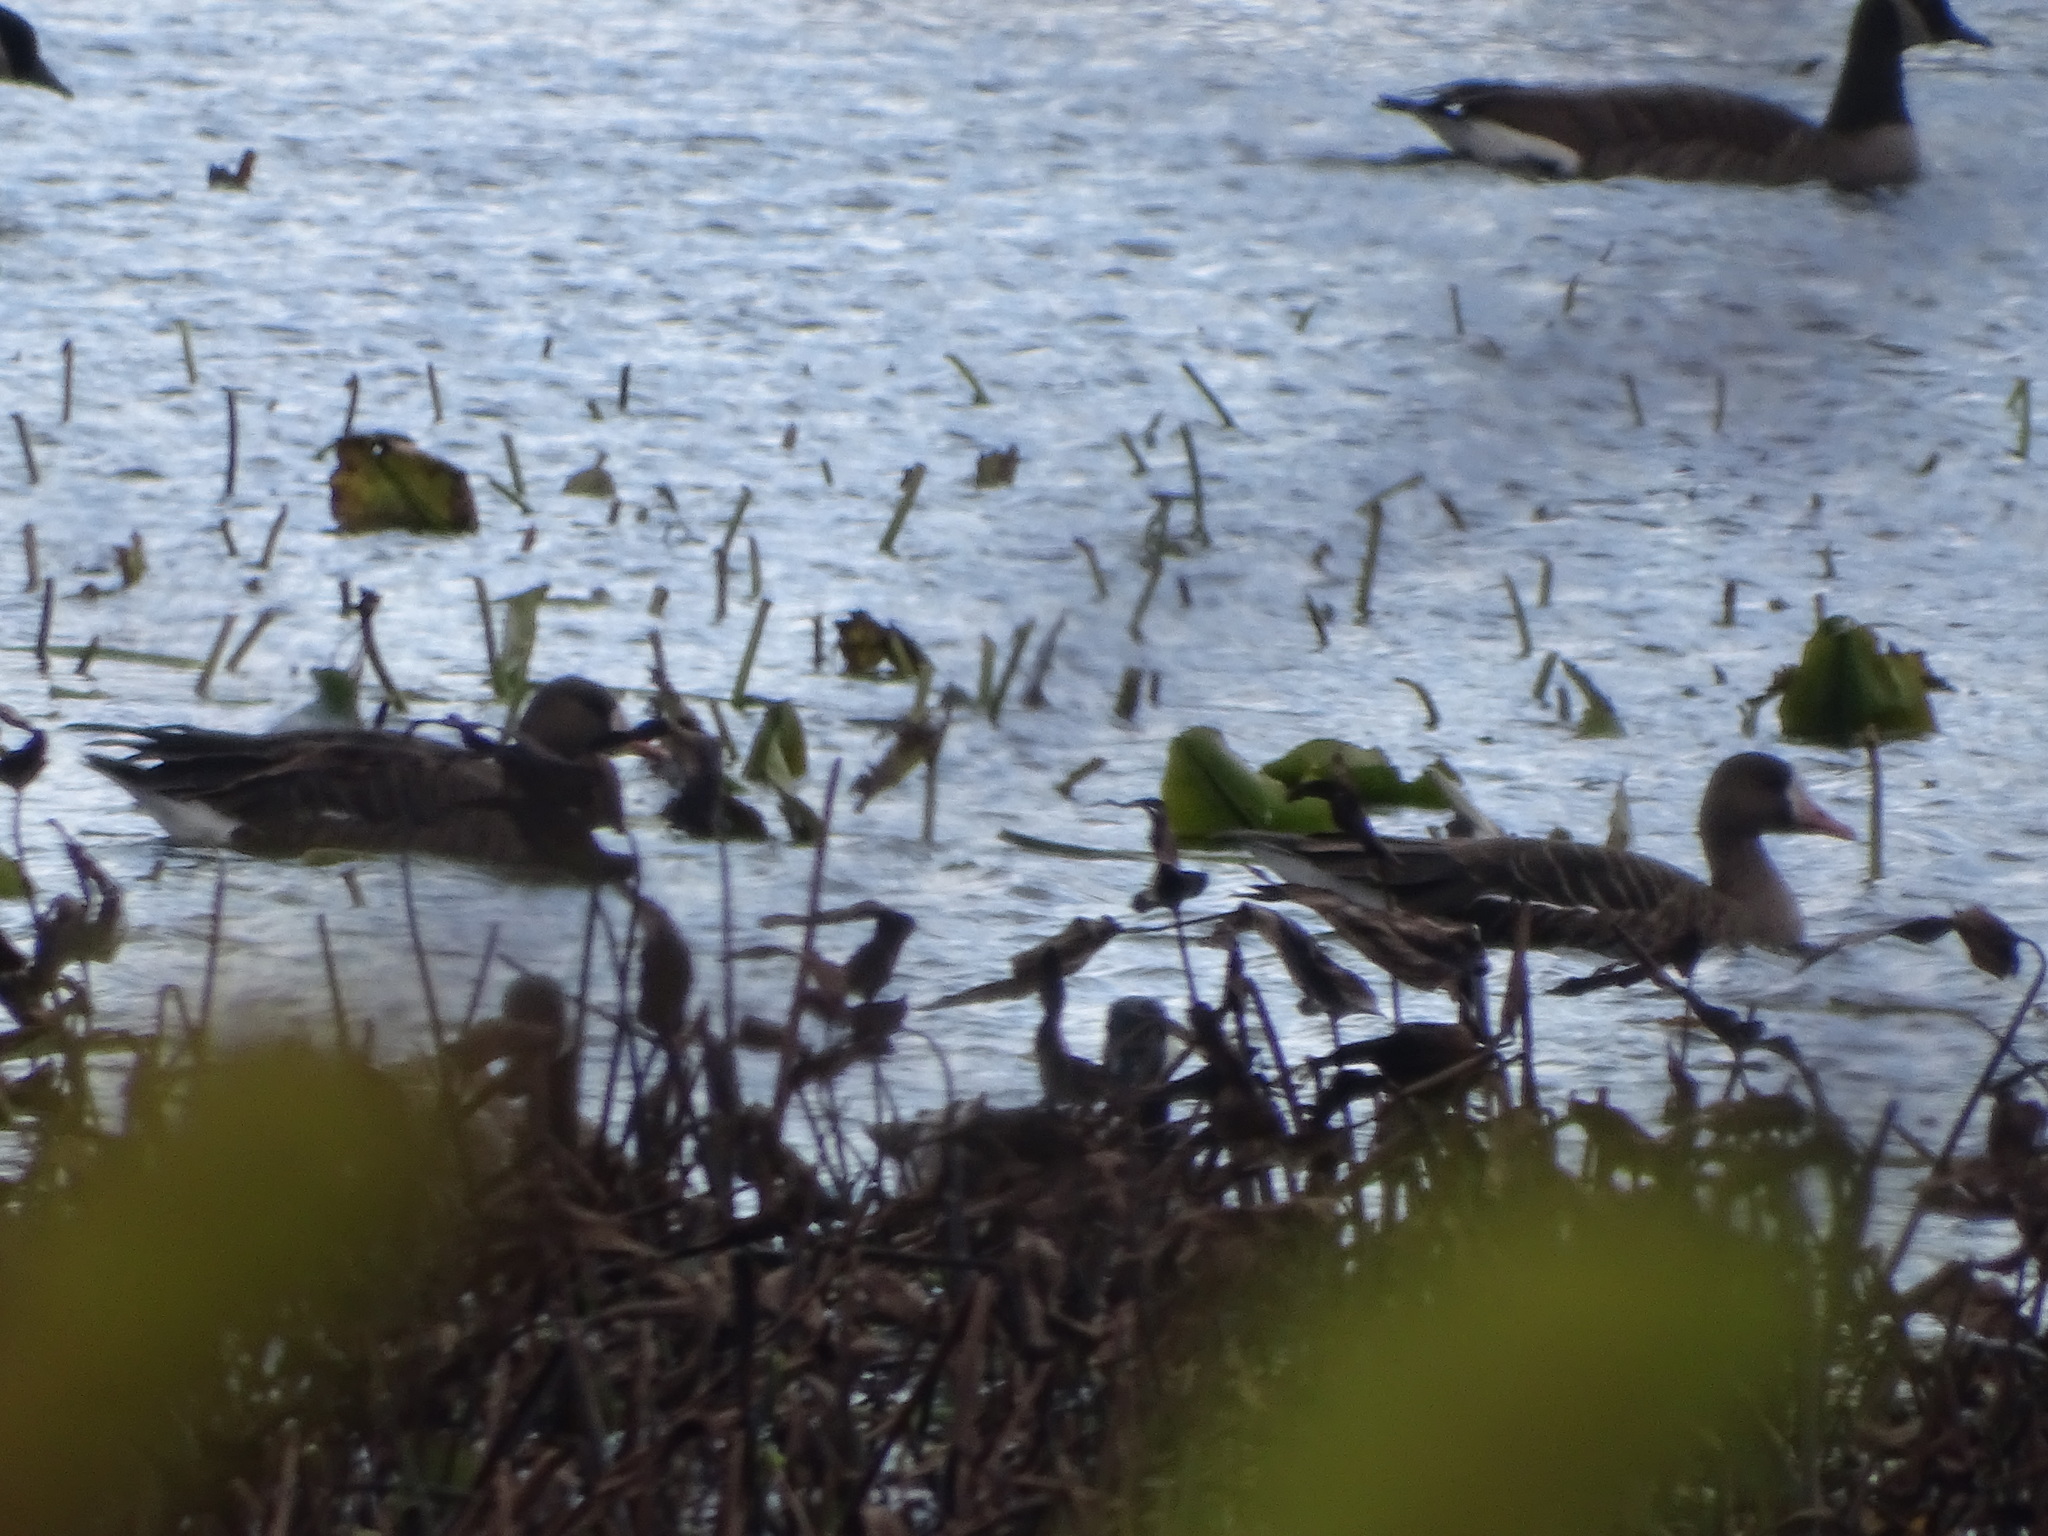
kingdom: Animalia
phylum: Chordata
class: Aves
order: Anseriformes
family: Anatidae
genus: Anser
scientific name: Anser albifrons
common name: Greater white-fronted goose
